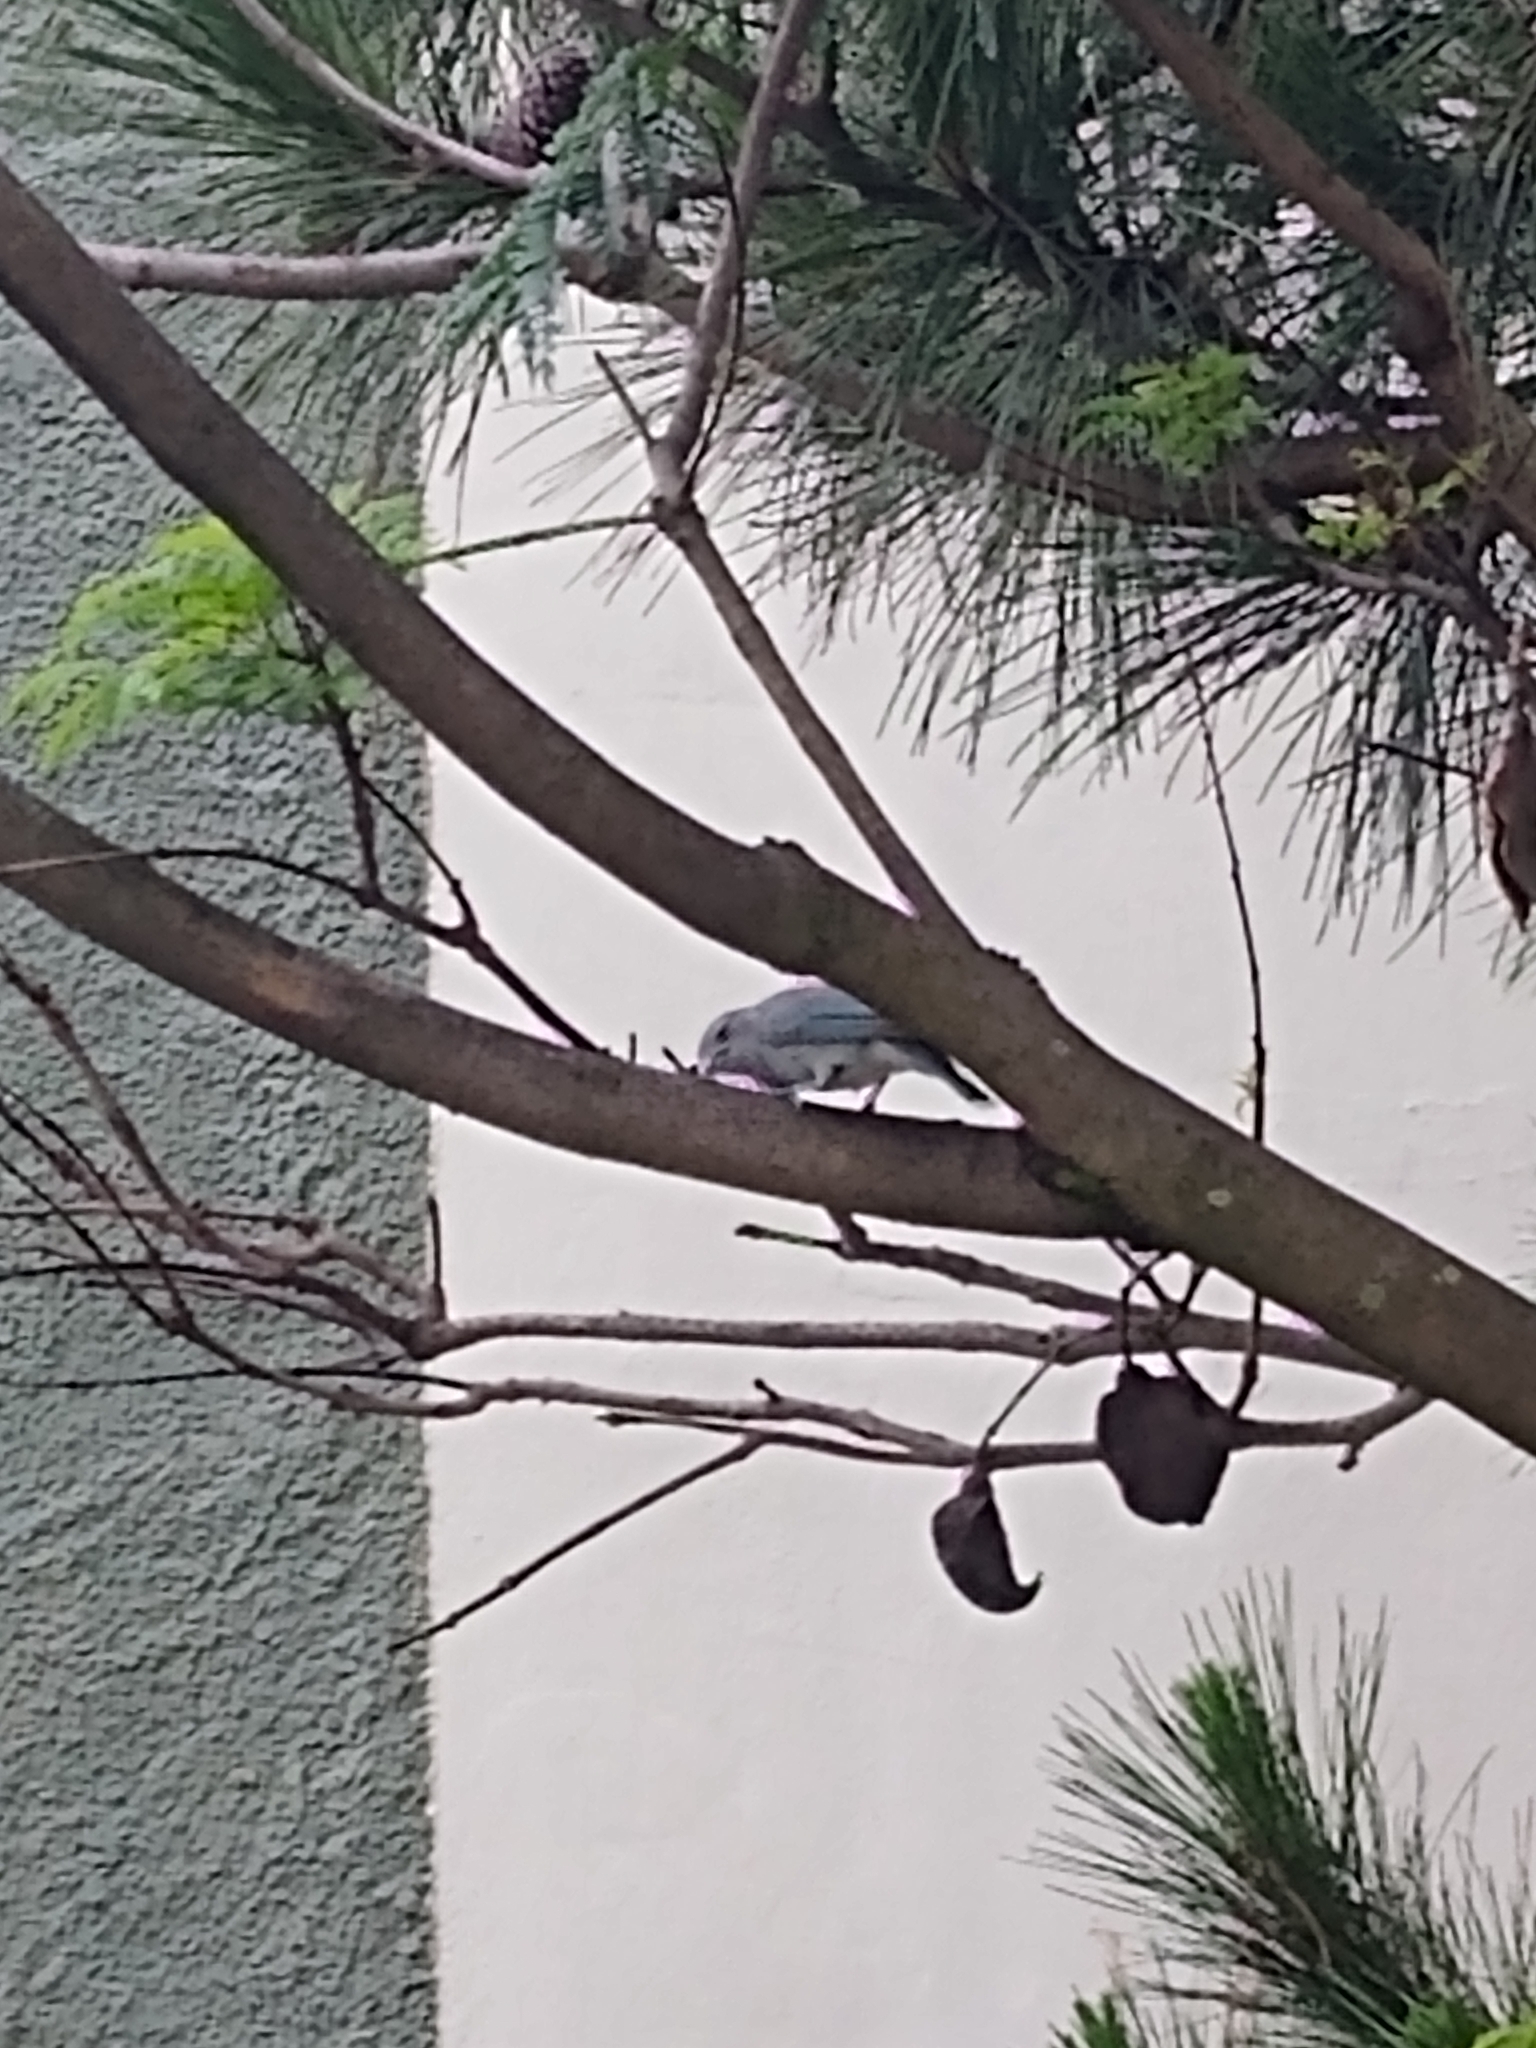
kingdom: Animalia
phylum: Chordata
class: Aves
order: Passeriformes
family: Thraupidae
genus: Thraupis
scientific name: Thraupis sayaca
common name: Sayaca tanager
